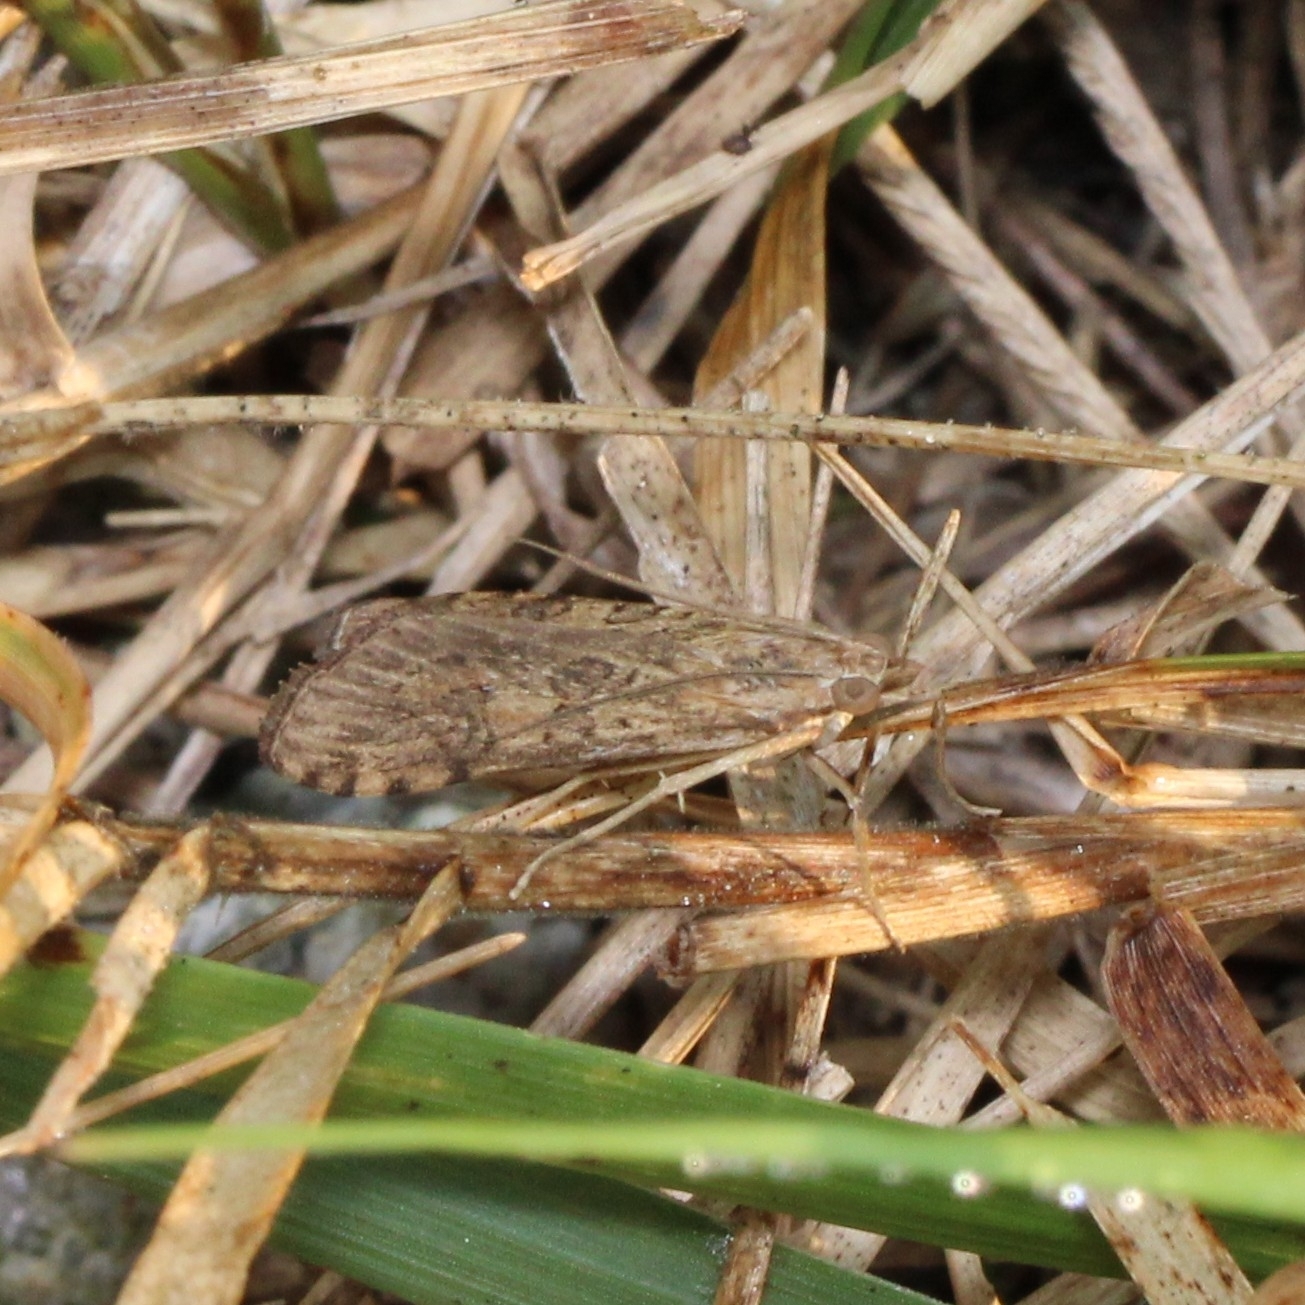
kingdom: Animalia
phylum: Arthropoda
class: Insecta
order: Lepidoptera
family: Crambidae
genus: Nomophila
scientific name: Nomophila nearctica
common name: American rush veneer
